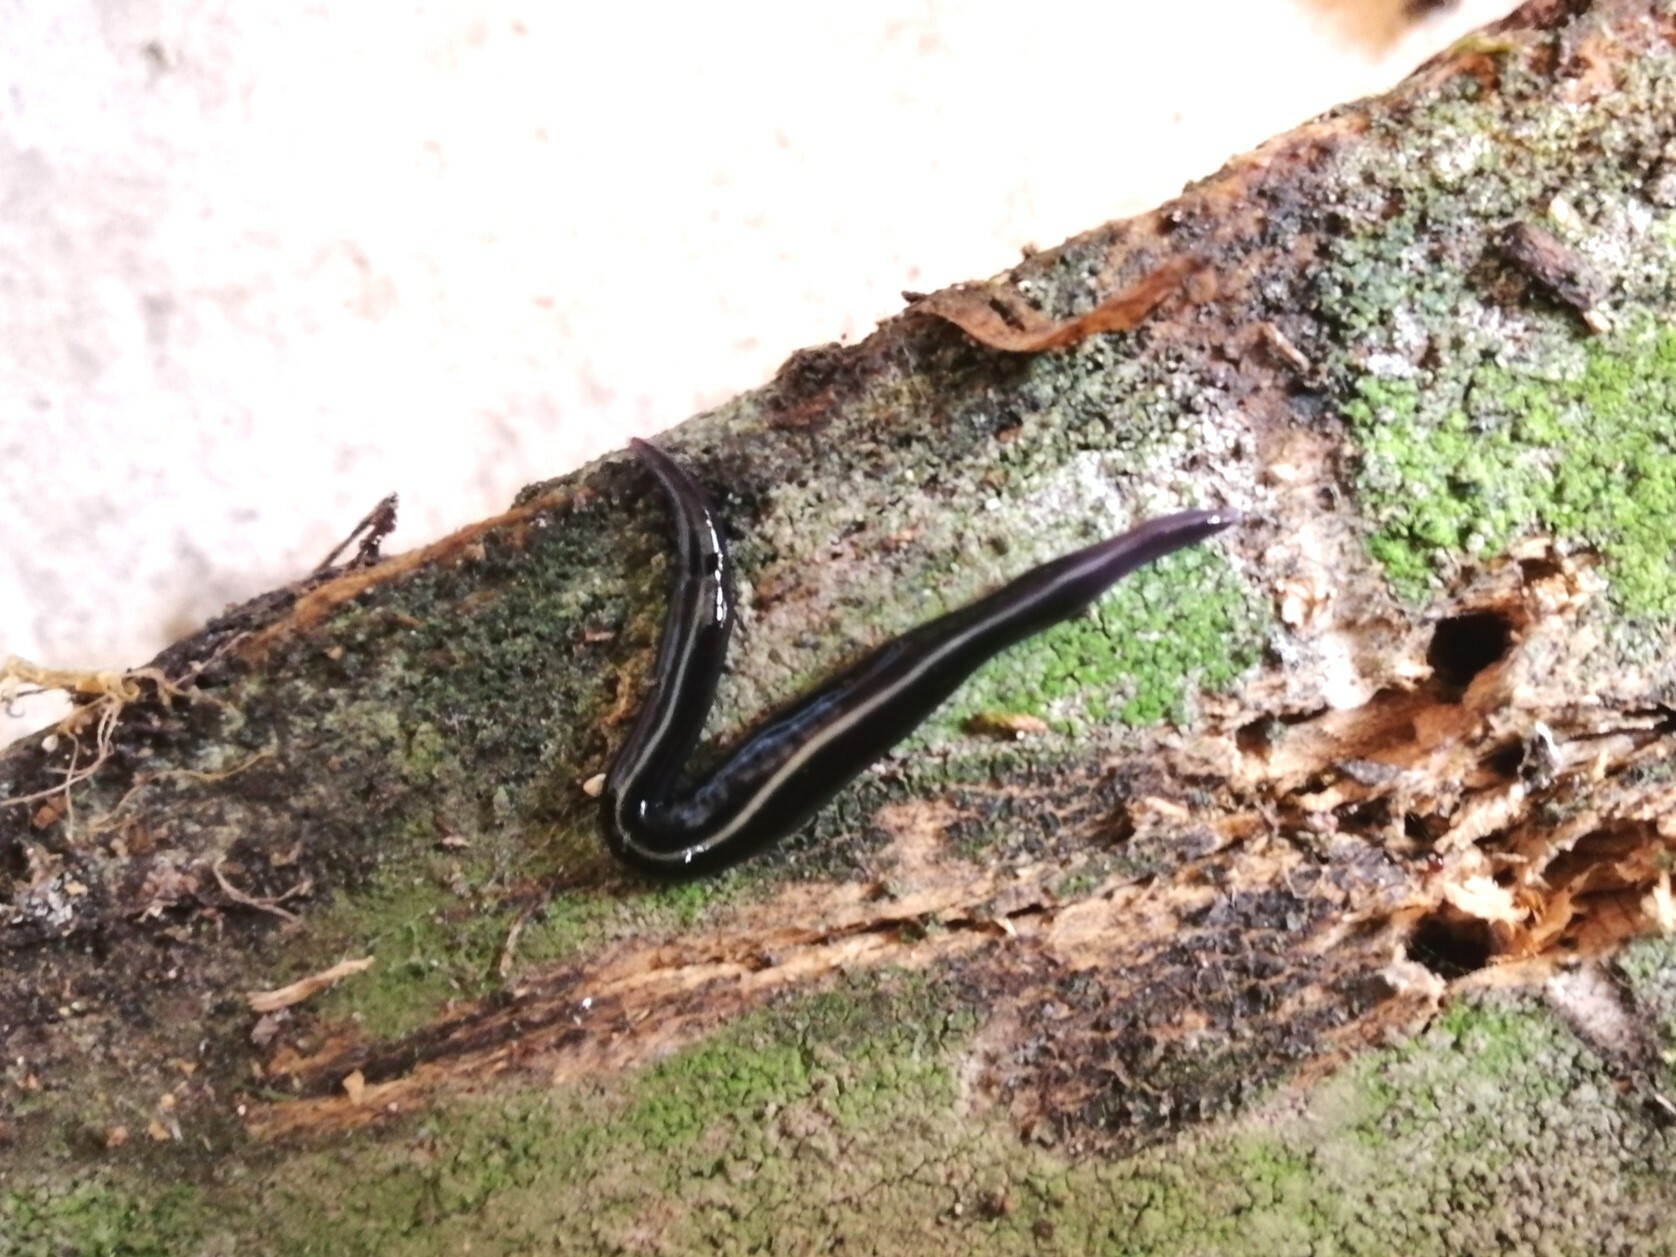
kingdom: Animalia
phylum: Platyhelminthes
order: Tricladida
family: Geoplanidae
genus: Caenoplana
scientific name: Caenoplana coerulea
